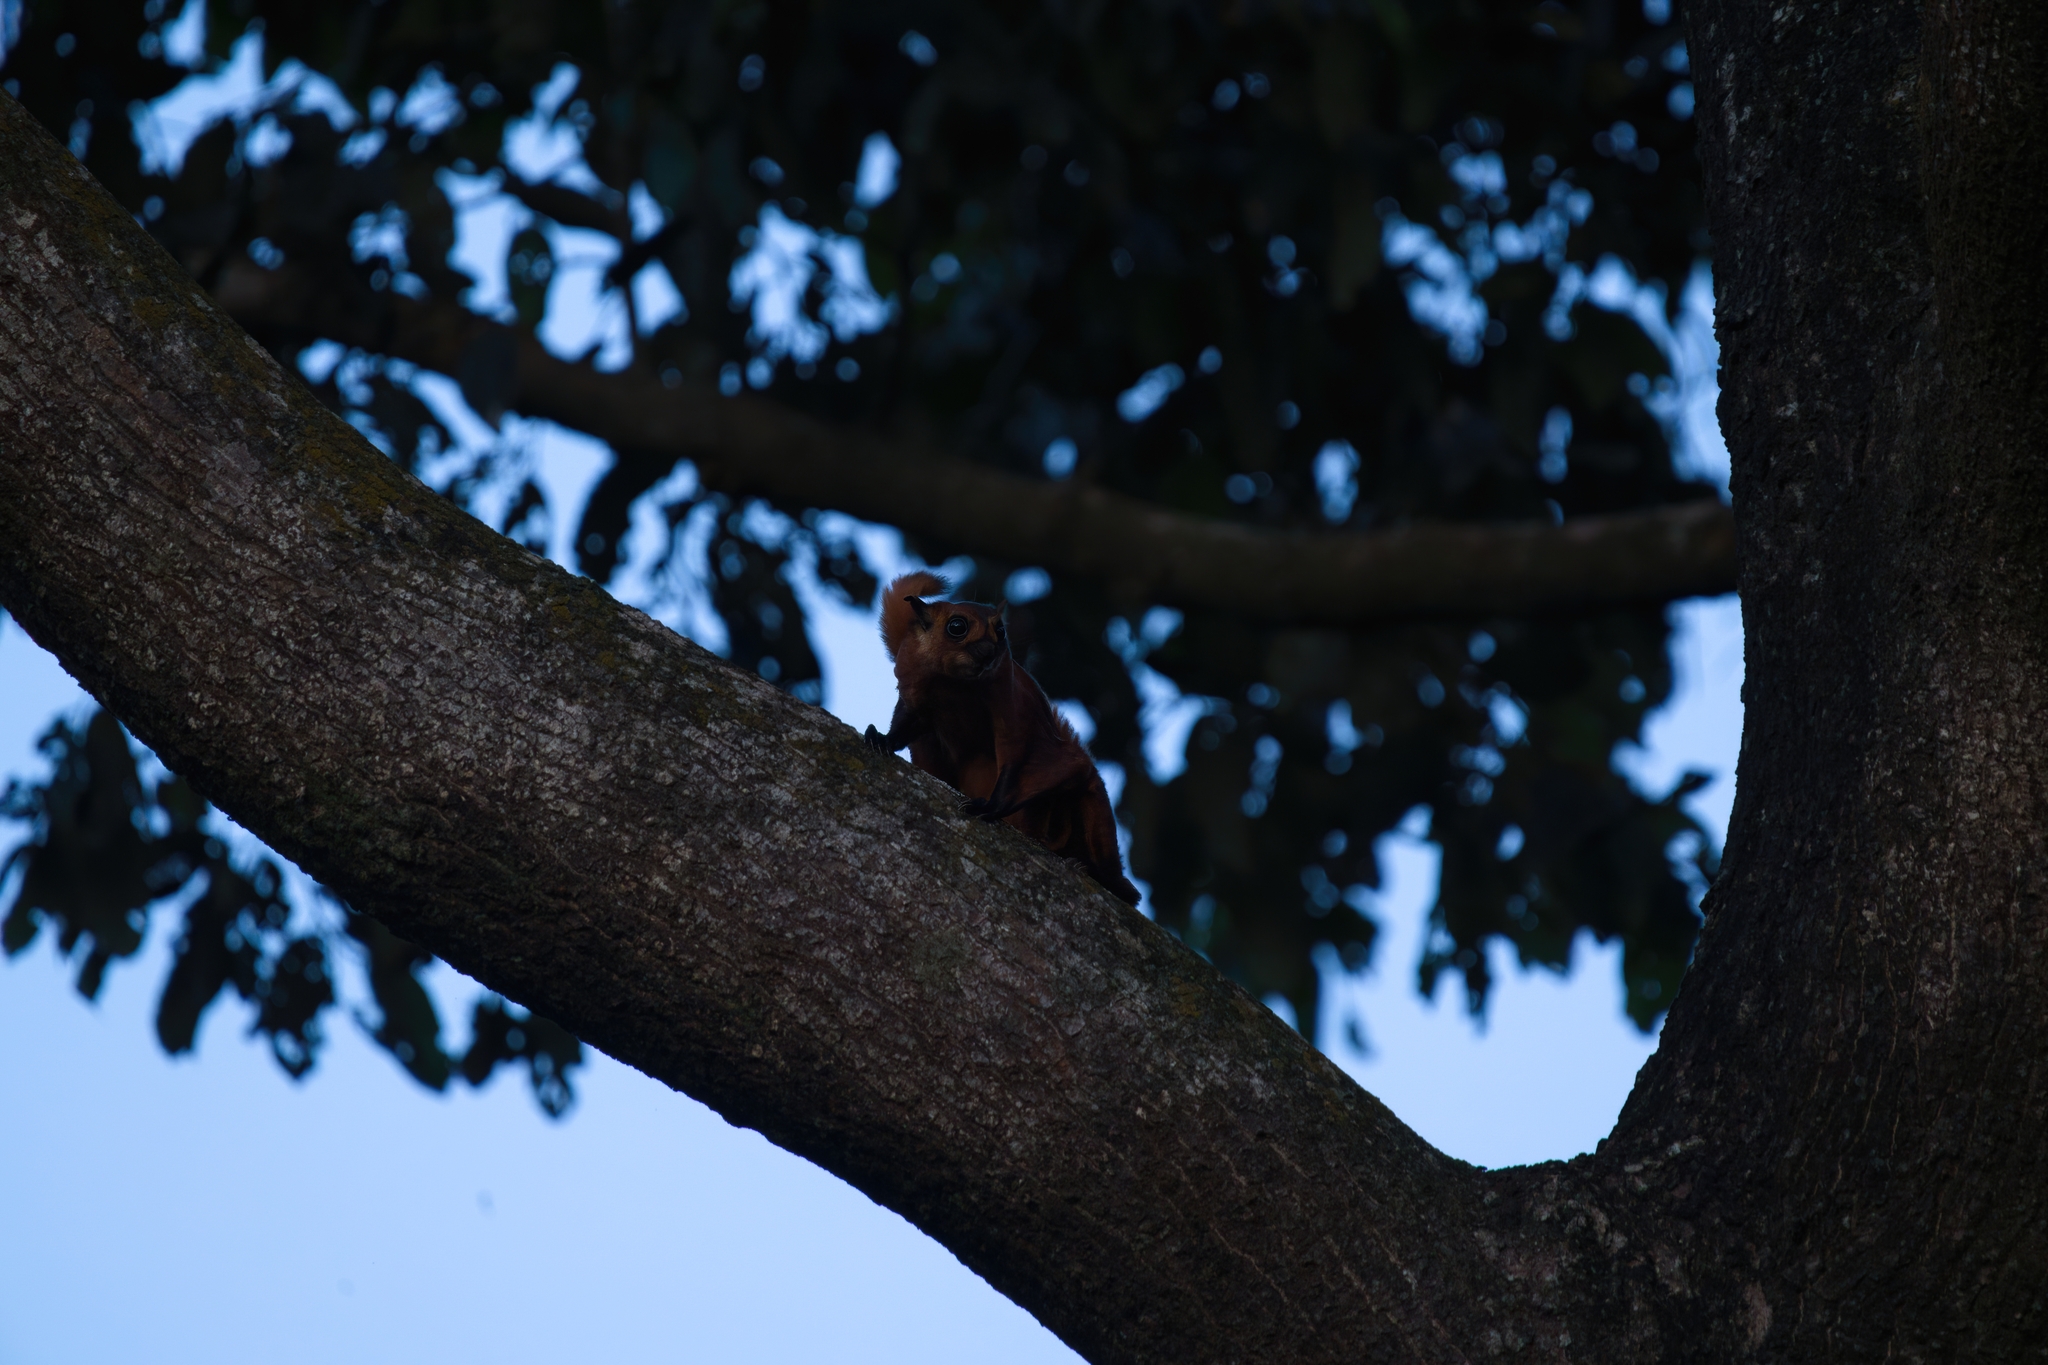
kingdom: Animalia
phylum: Chordata
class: Mammalia
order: Rodentia
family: Sciuridae
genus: Petaurista
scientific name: Petaurista petaurista
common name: Red giant flying squirrel
